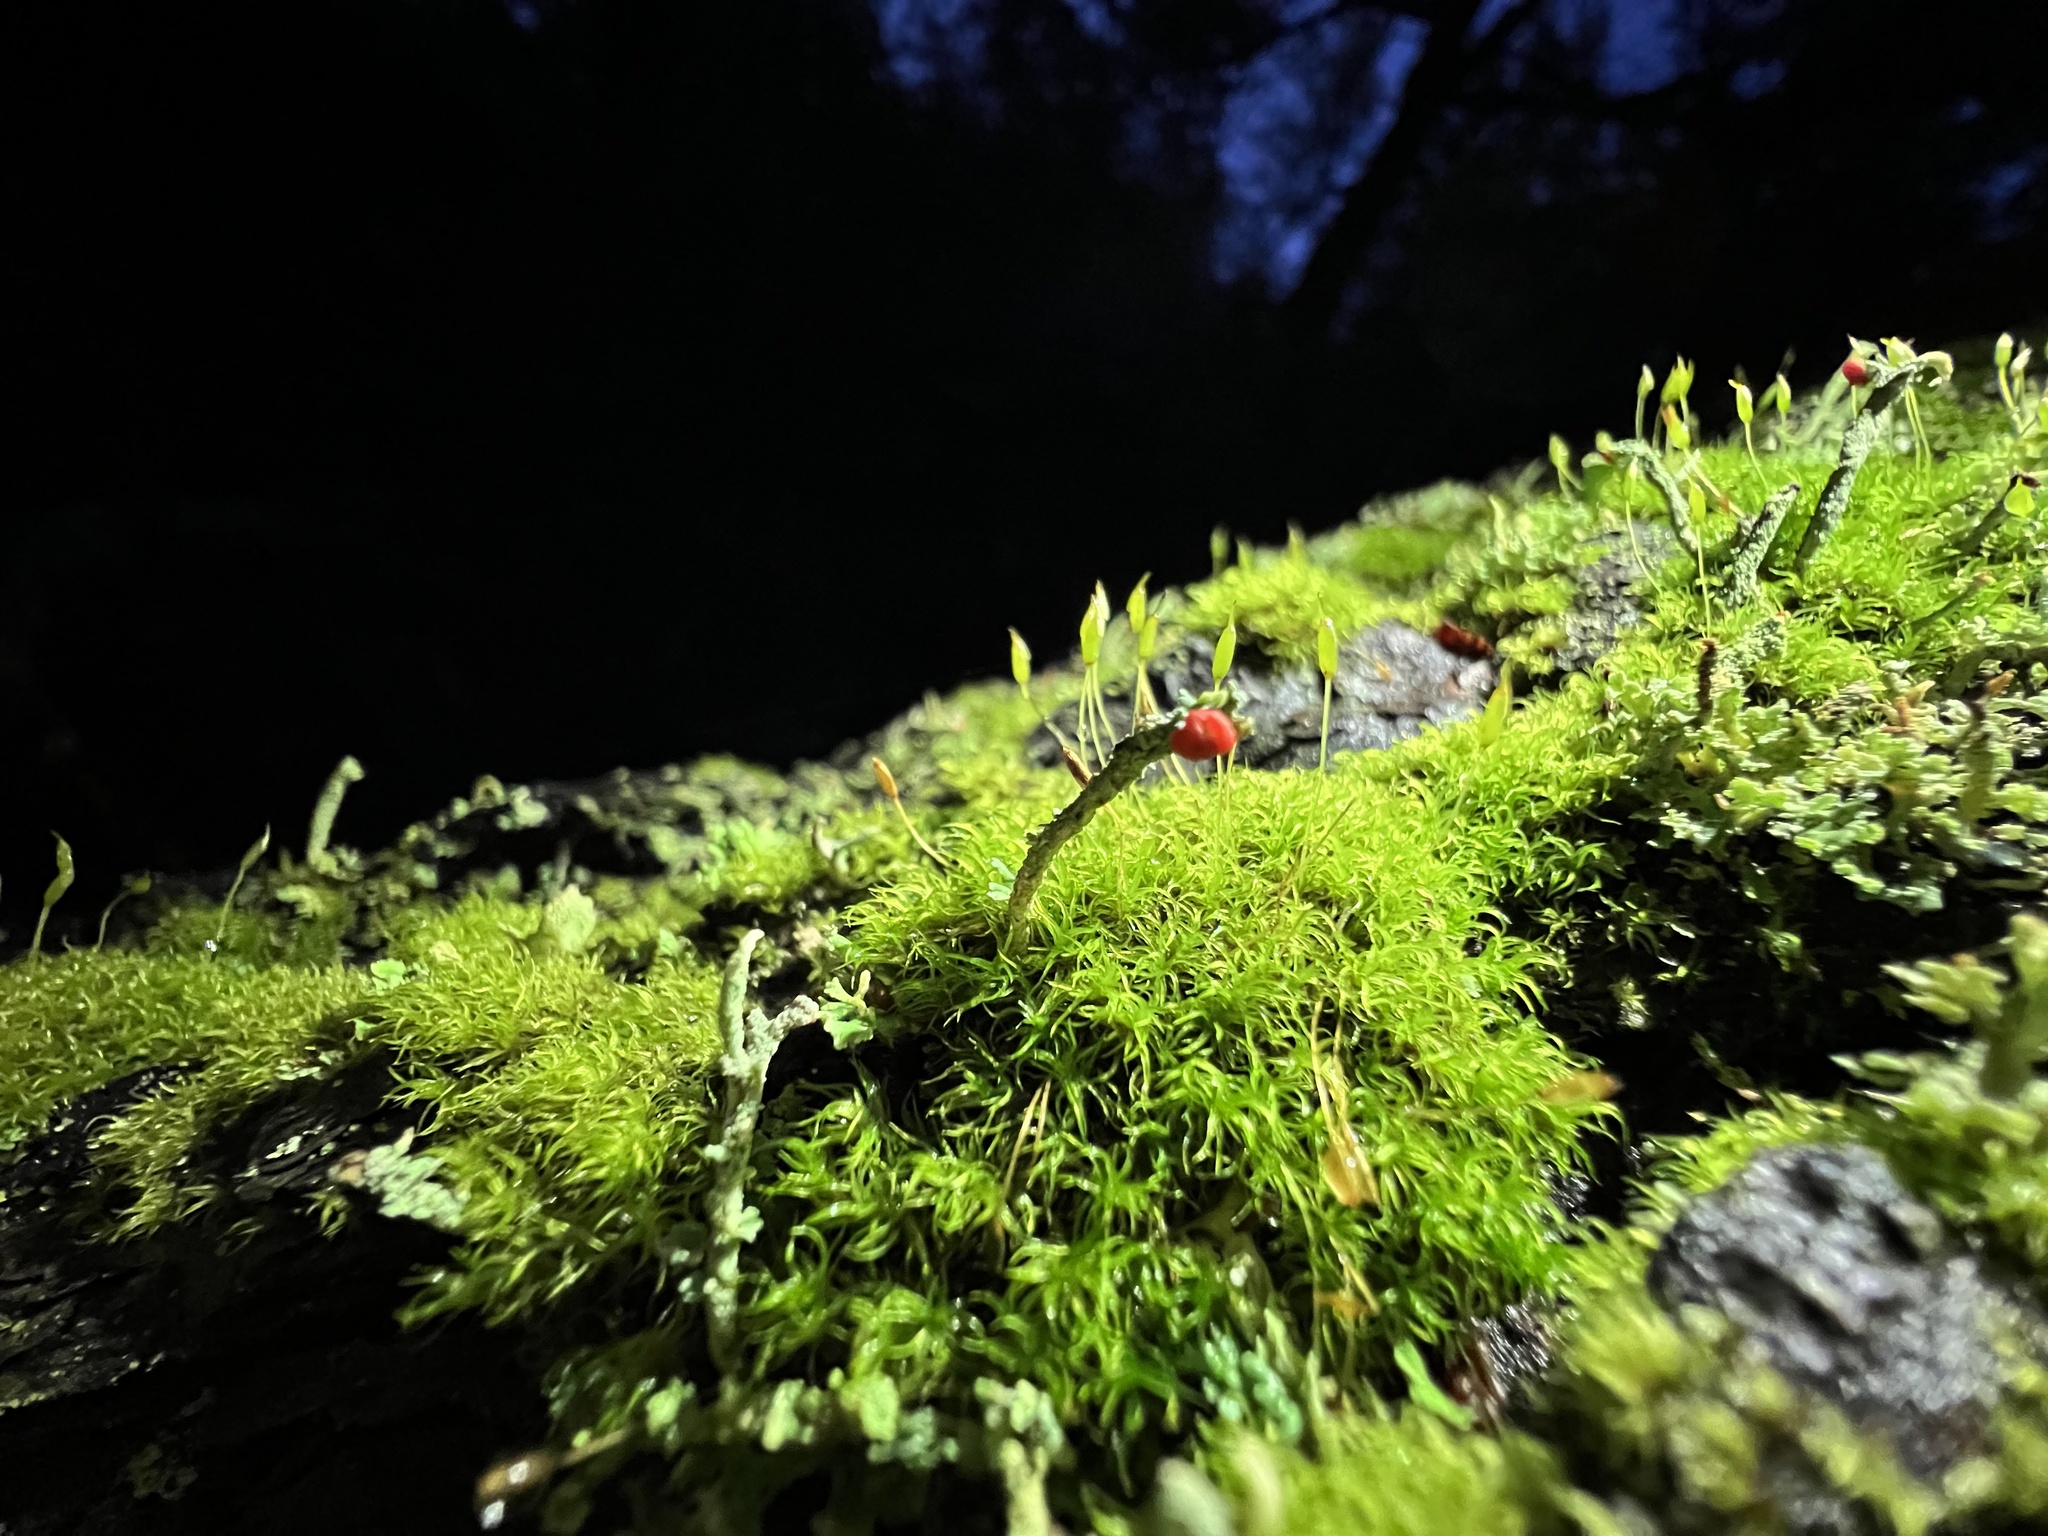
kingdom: Fungi
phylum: Ascomycota
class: Lecanoromycetes
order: Lecanorales
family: Cladoniaceae
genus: Cladonia
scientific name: Cladonia macilenta
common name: Lipstick powderhorn
